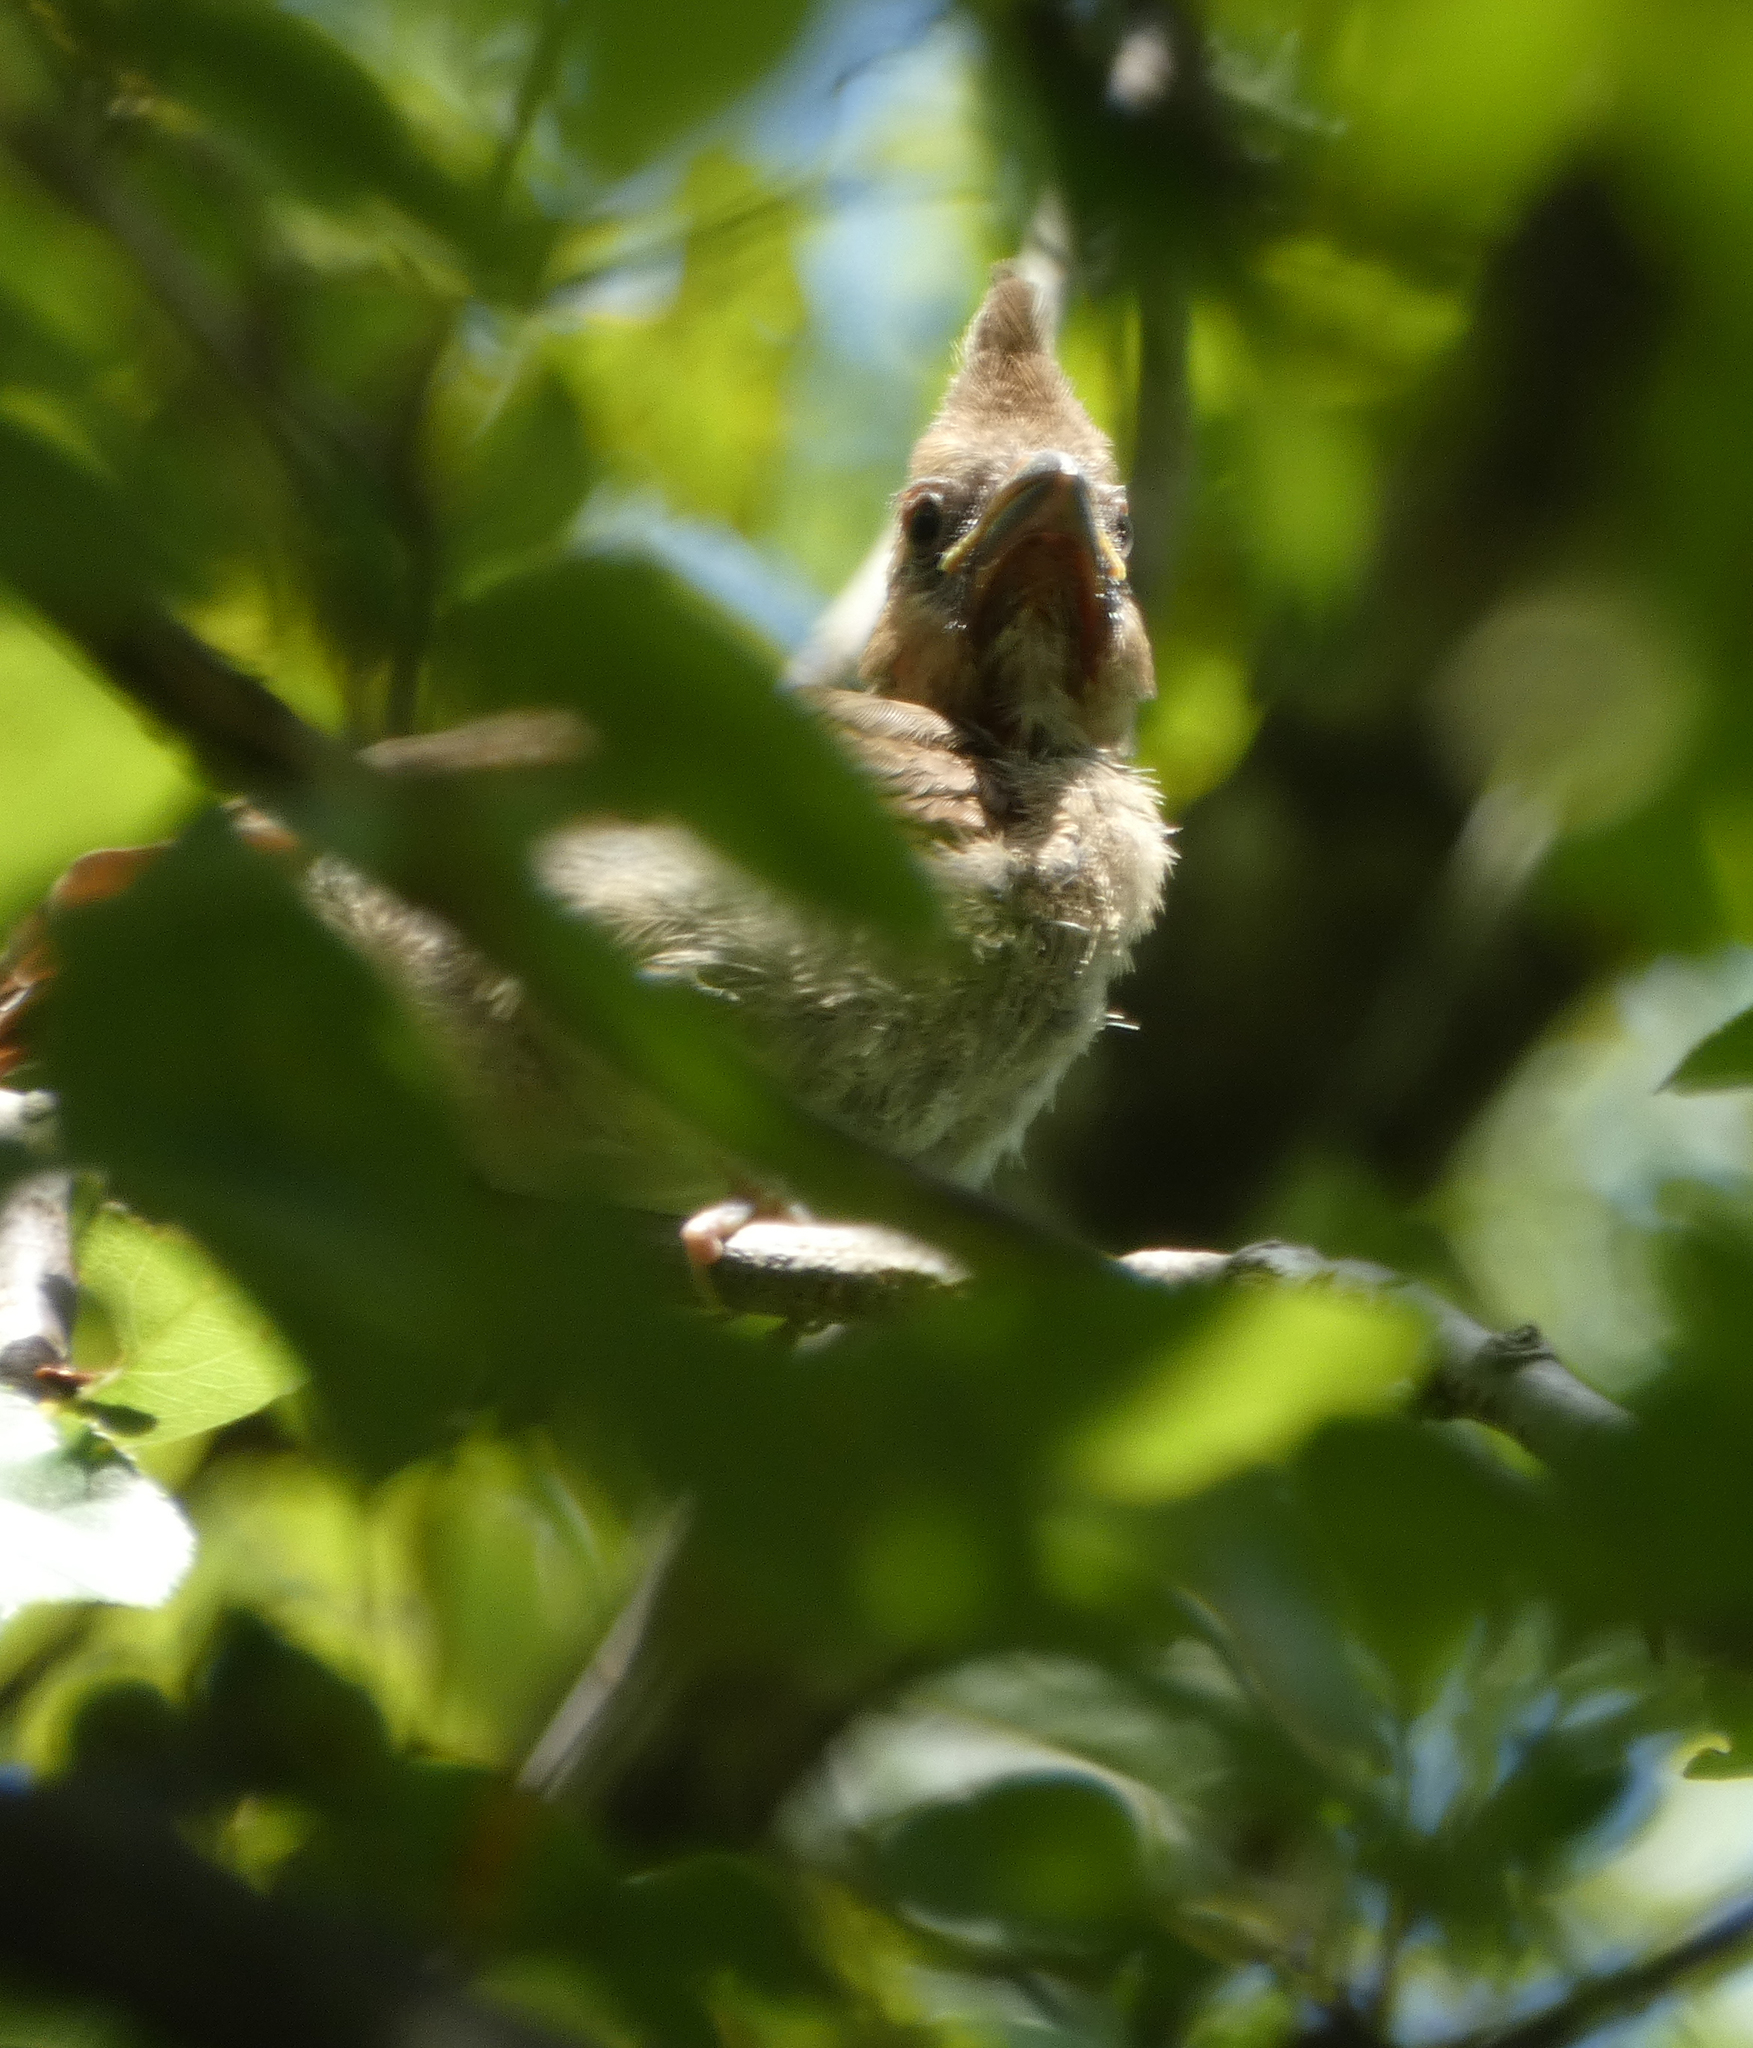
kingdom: Animalia
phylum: Chordata
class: Aves
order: Passeriformes
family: Cardinalidae
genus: Cardinalis
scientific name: Cardinalis cardinalis
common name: Northern cardinal
